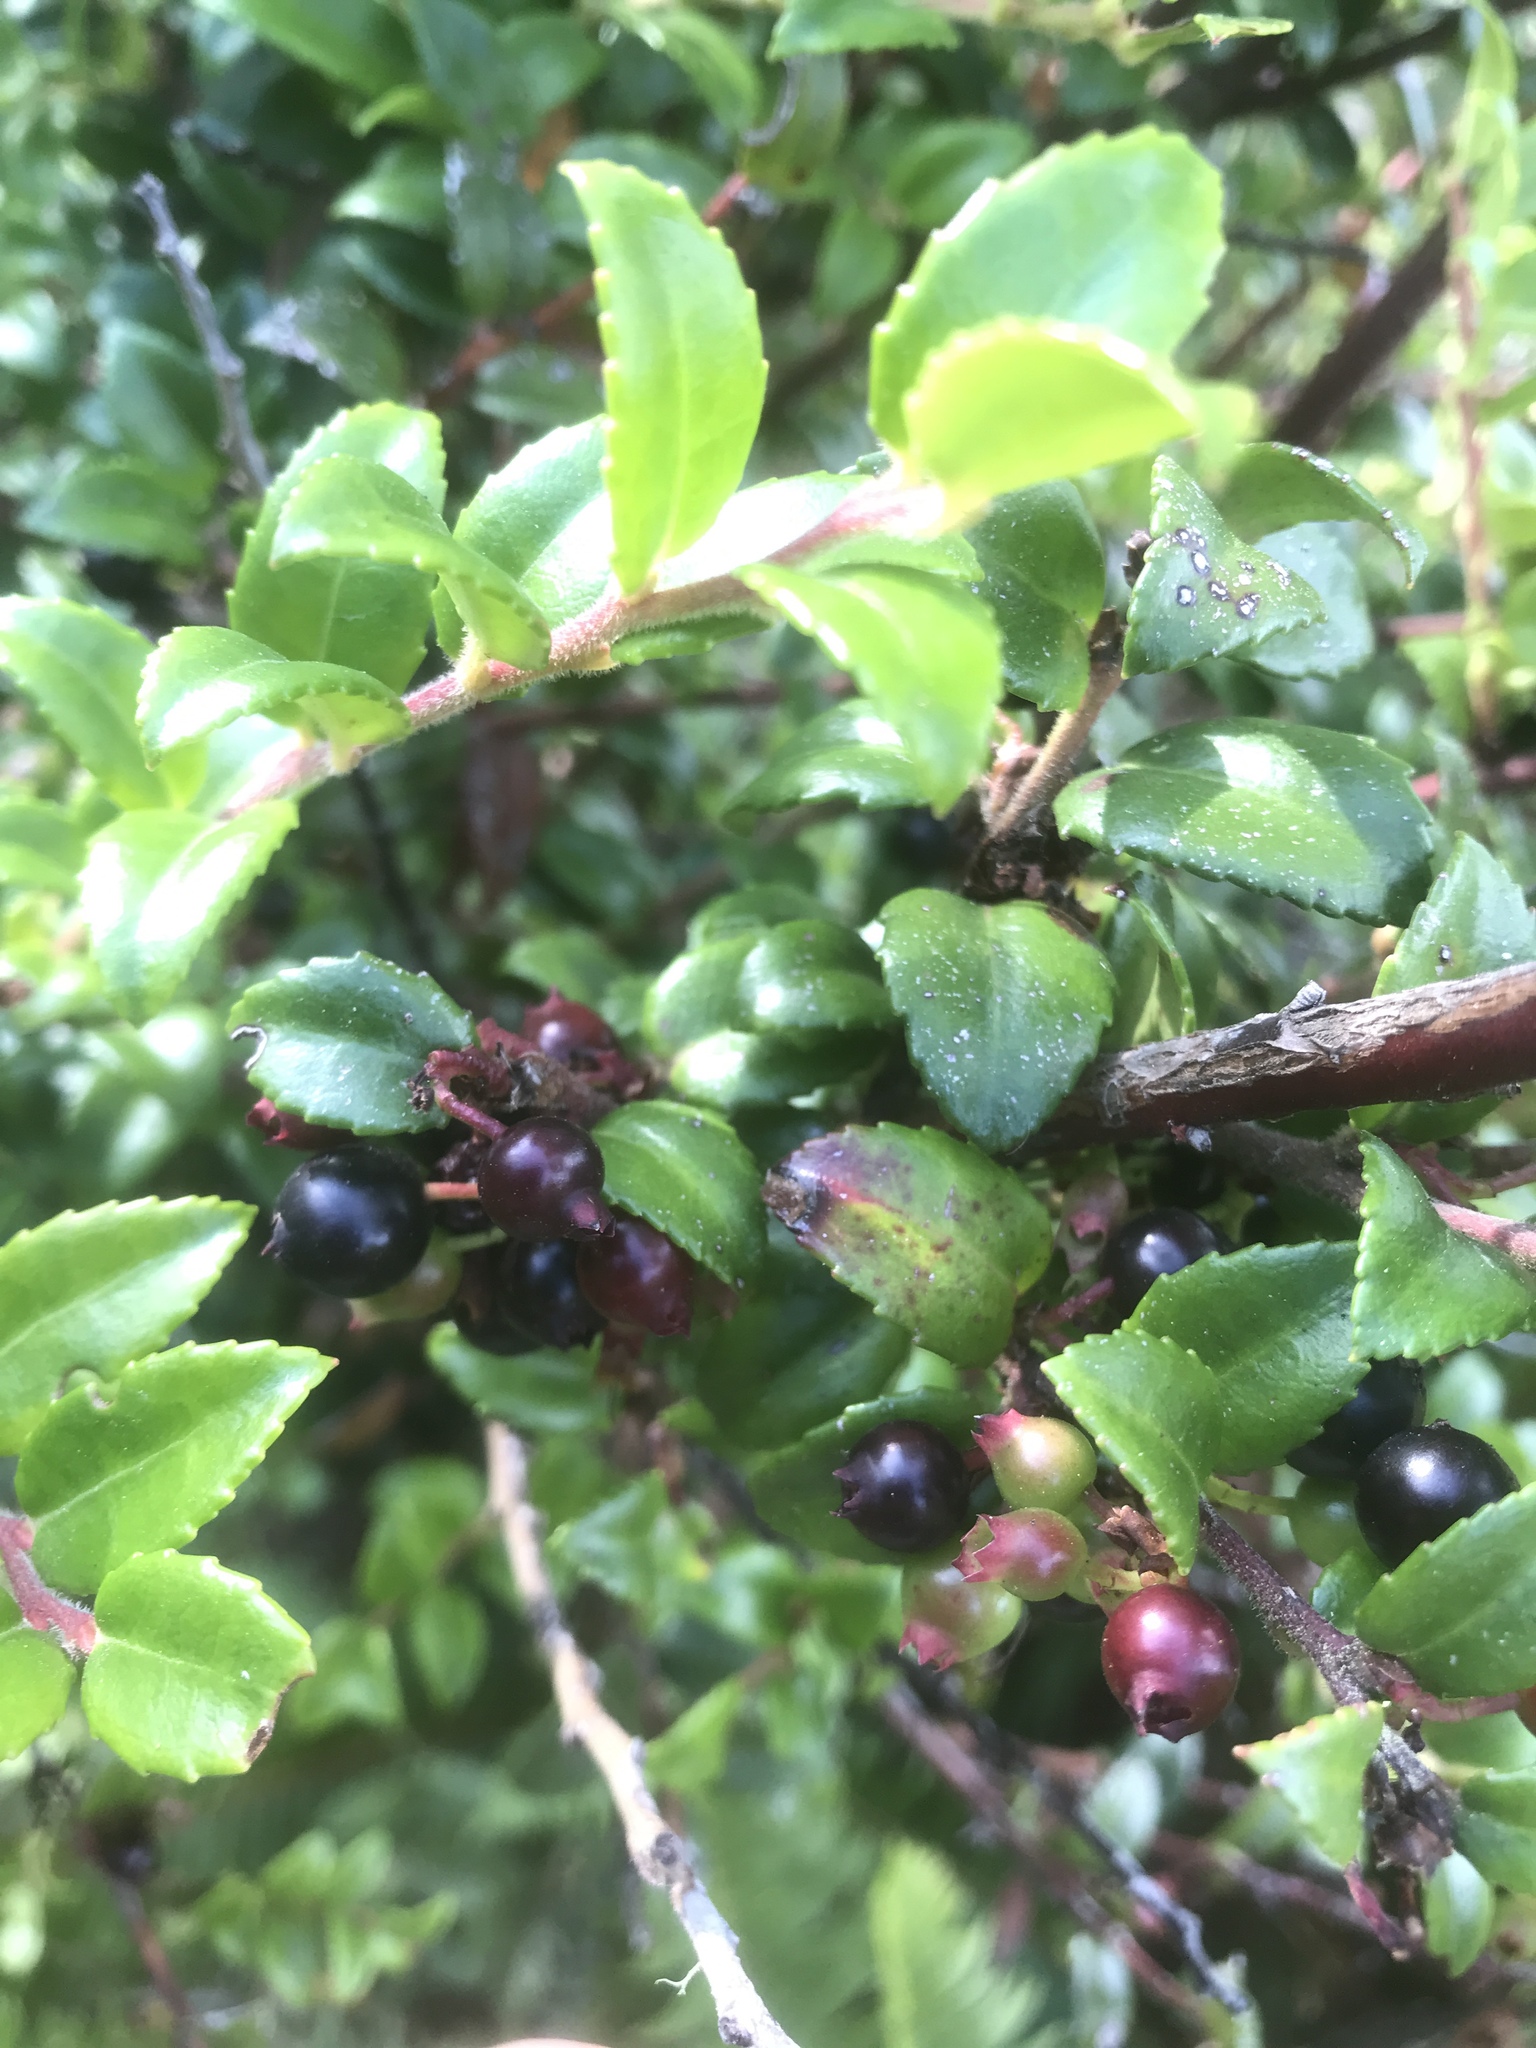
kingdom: Plantae
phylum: Tracheophyta
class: Magnoliopsida
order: Ericales
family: Ericaceae
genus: Vaccinium
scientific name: Vaccinium ovatum
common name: California-huckleberry
